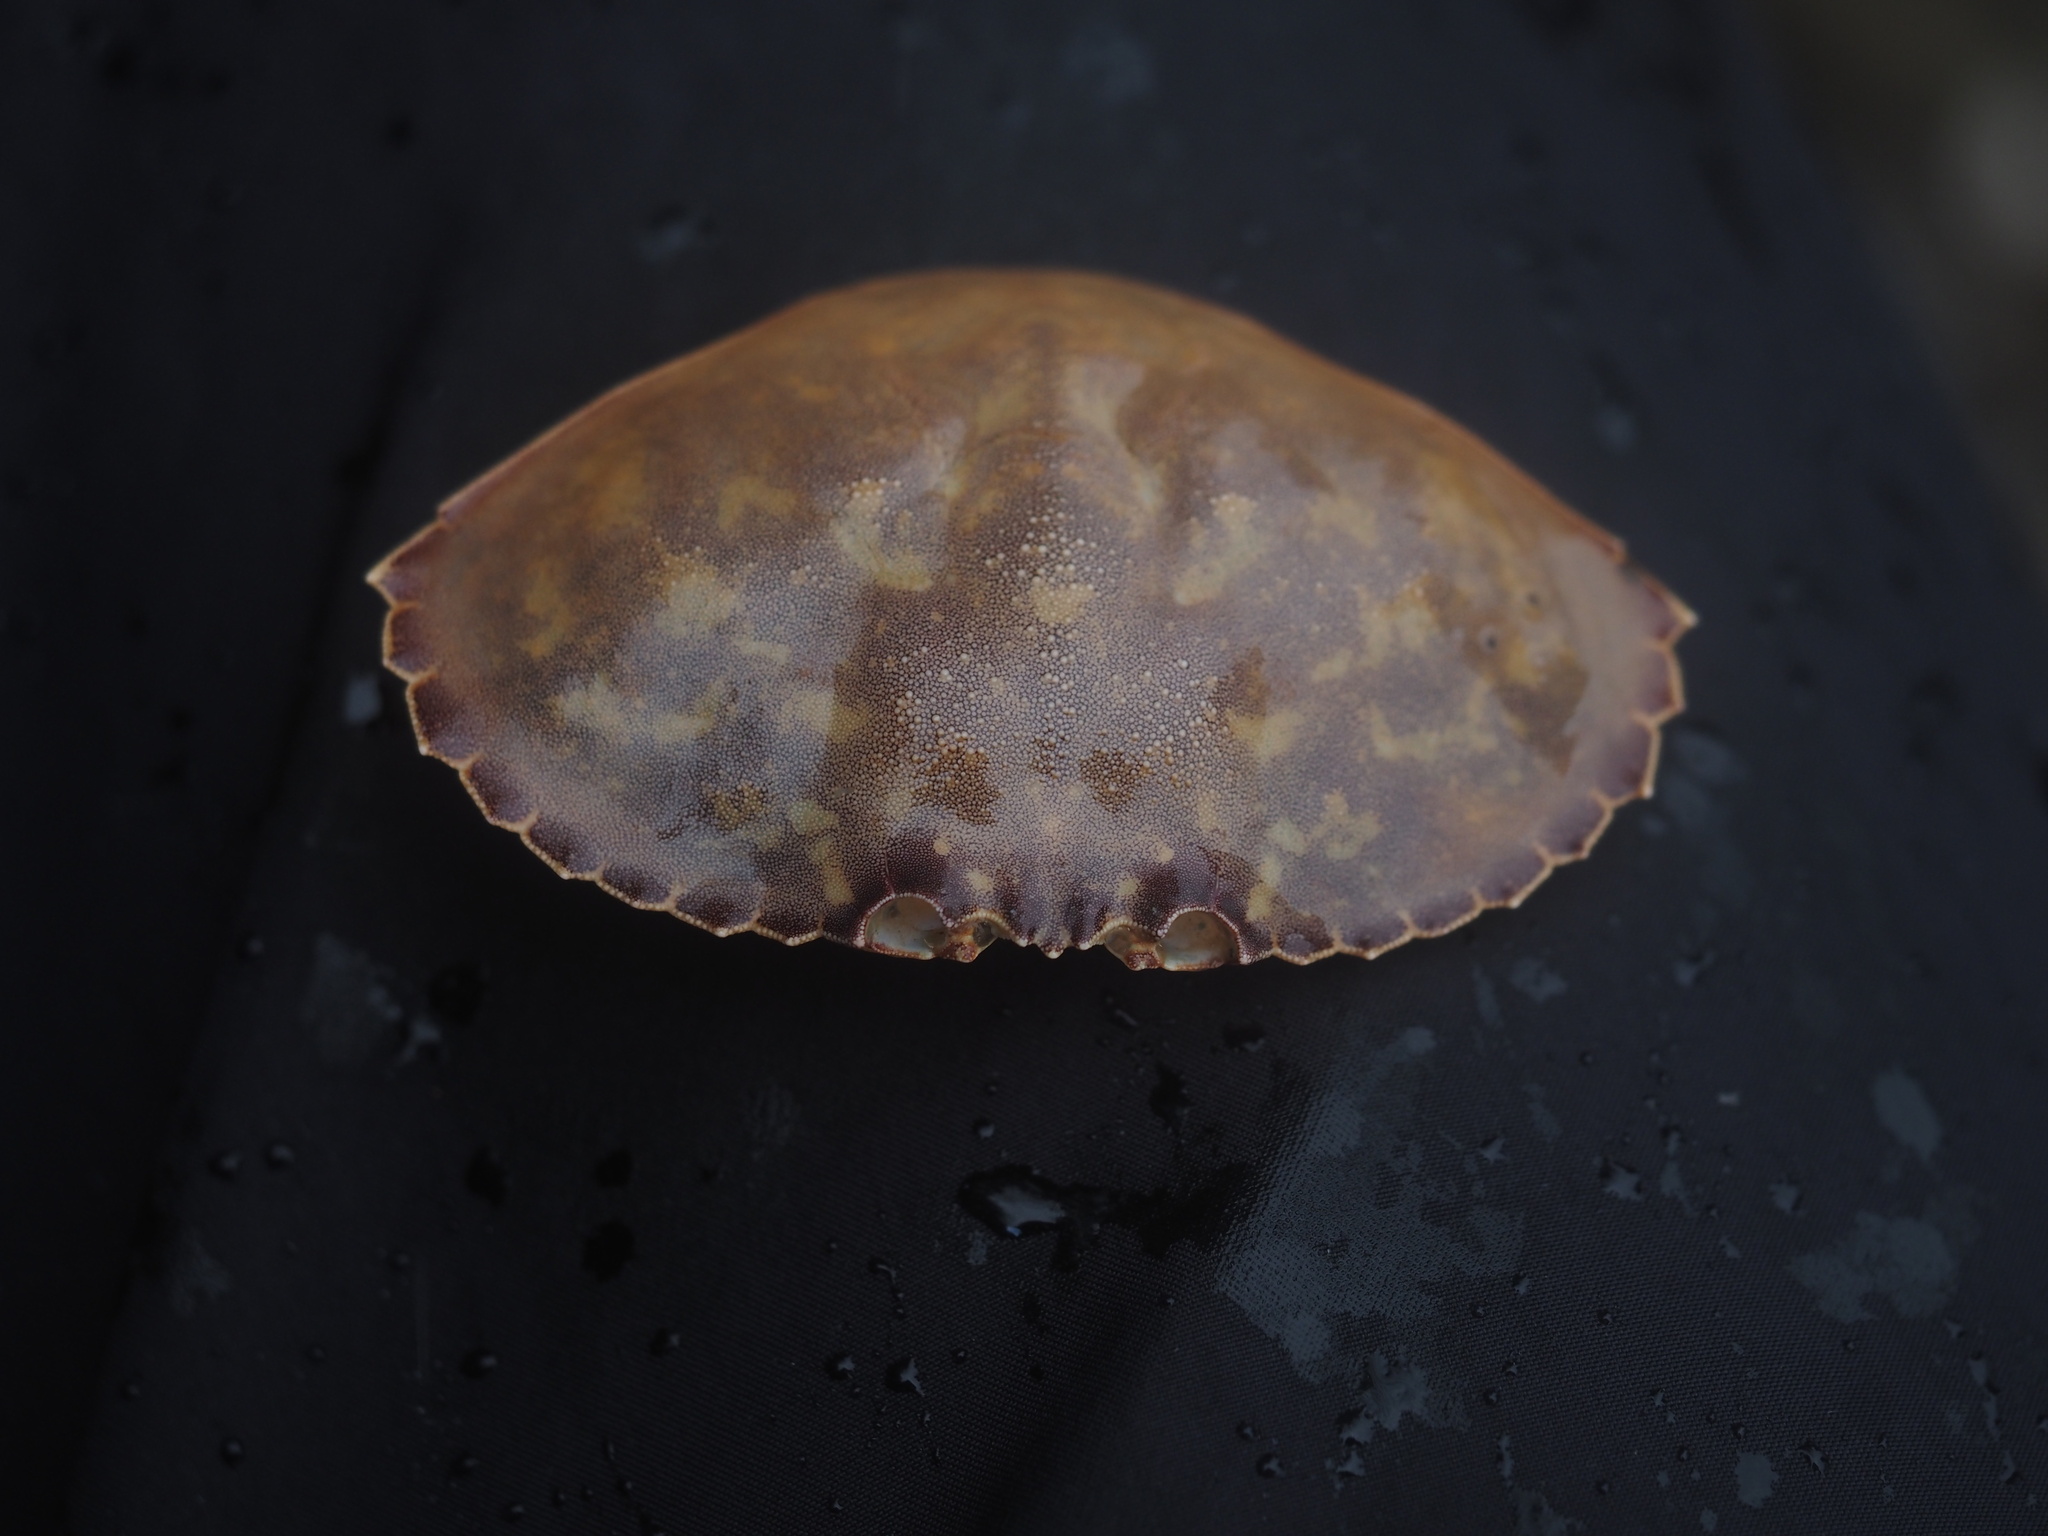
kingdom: Animalia
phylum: Arthropoda
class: Malacostraca
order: Decapoda
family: Cancridae
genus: Metacarcinus
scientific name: Metacarcinus gracilis
